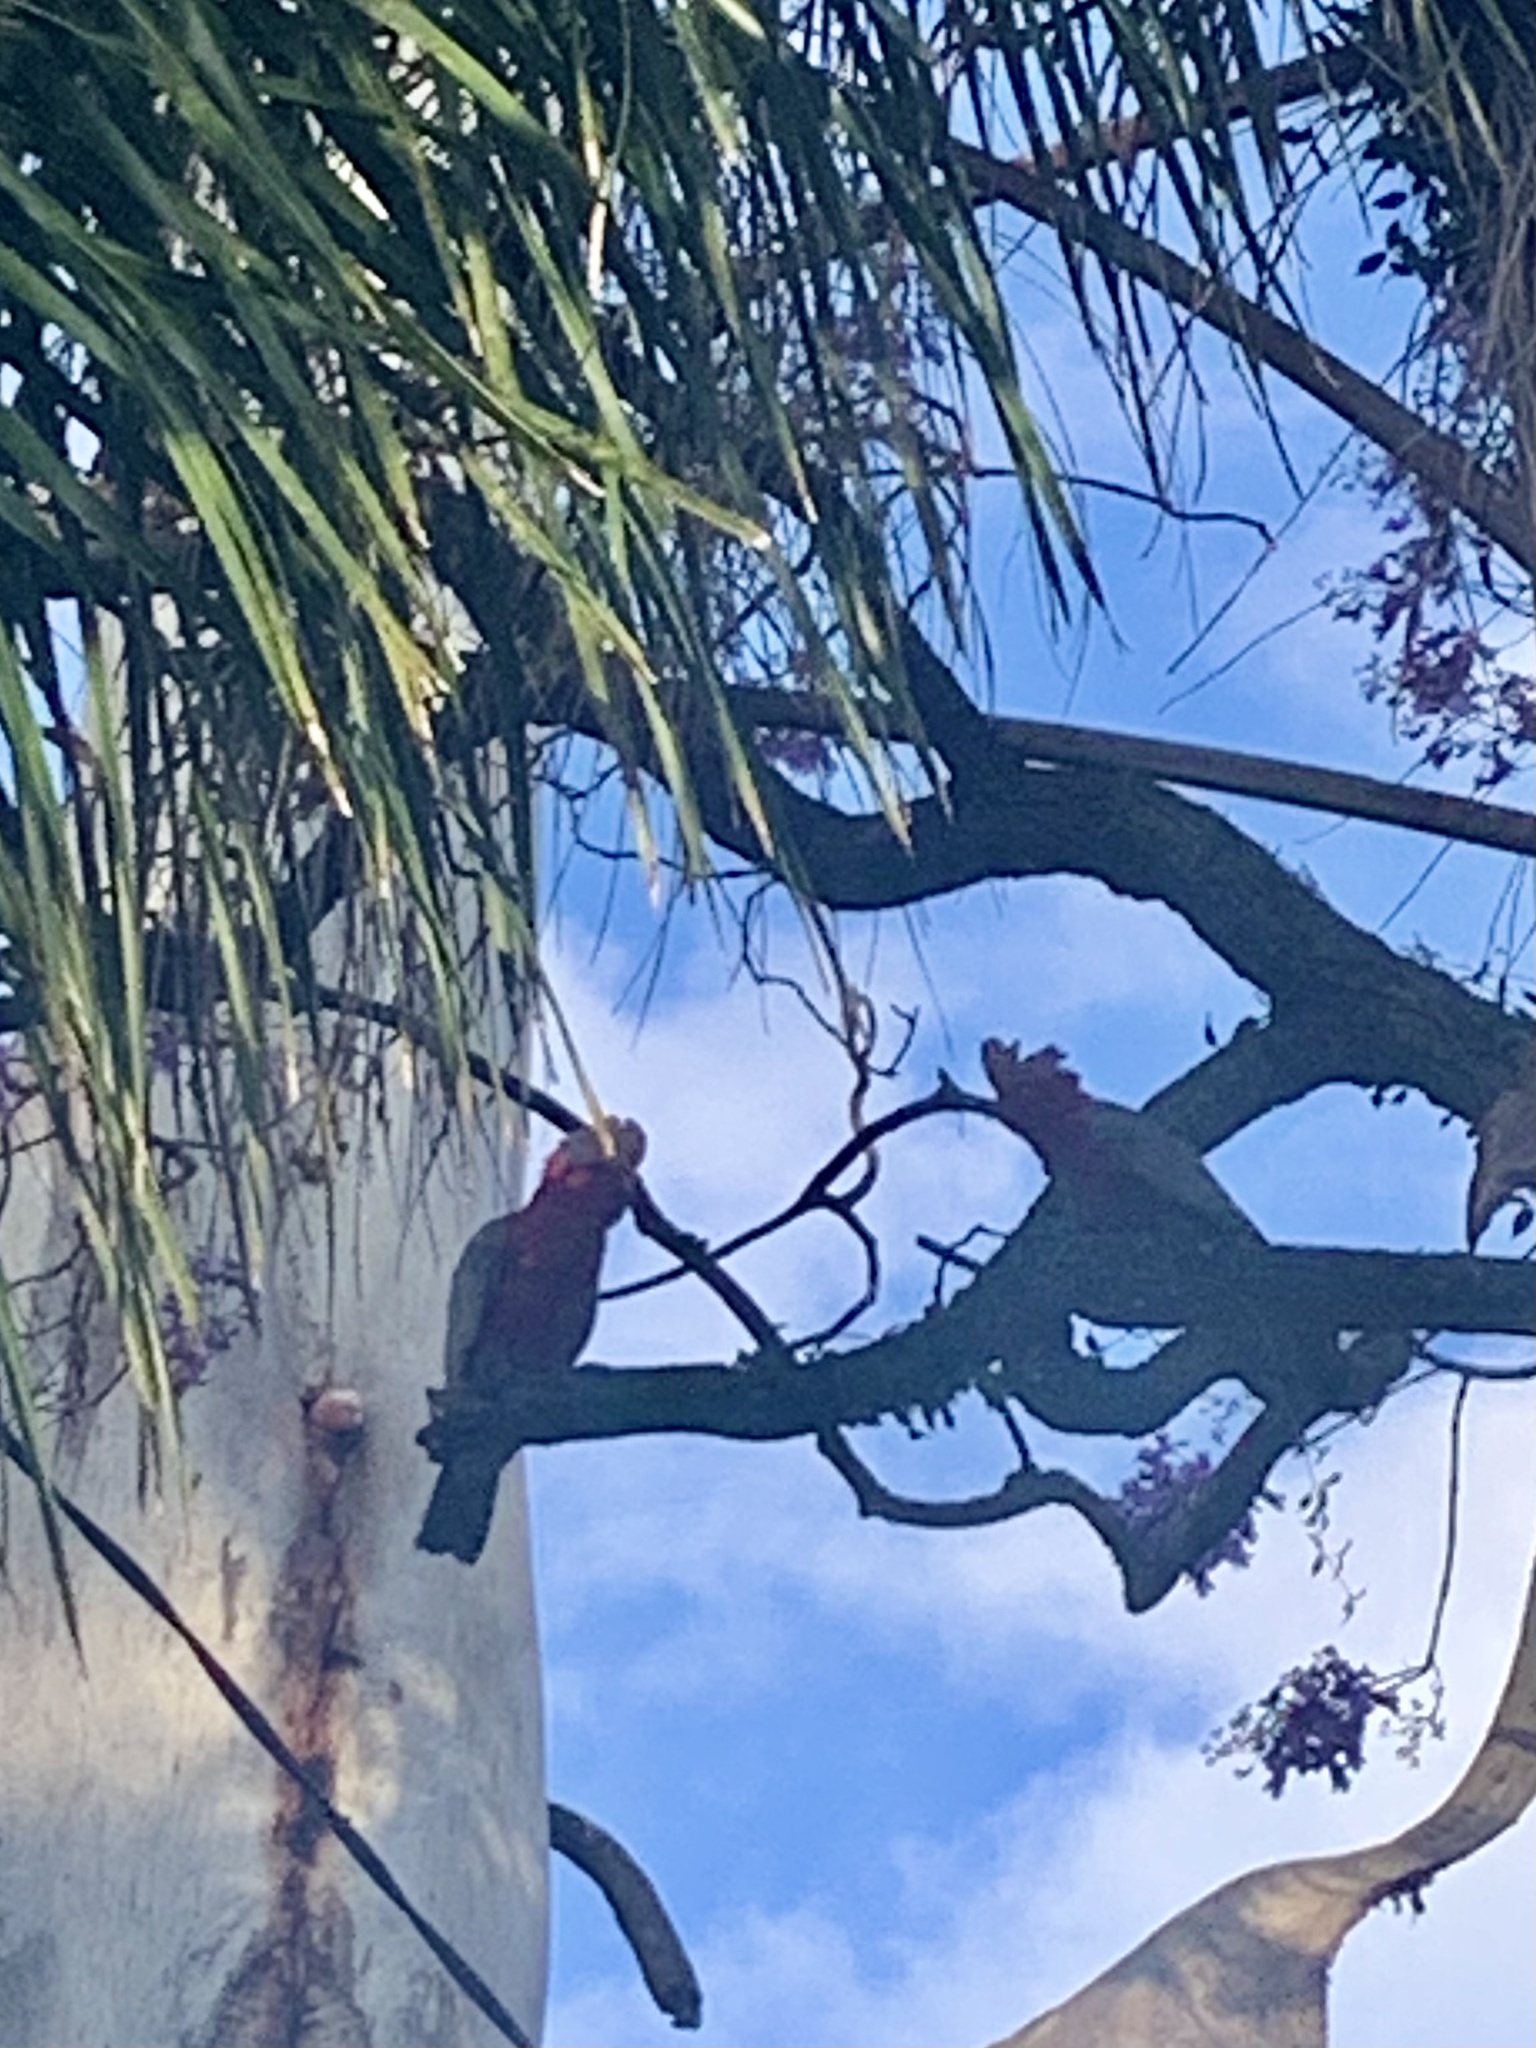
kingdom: Animalia
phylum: Chordata
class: Aves
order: Psittaciformes
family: Psittacidae
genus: Eolophus
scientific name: Eolophus roseicapilla
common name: Galah
